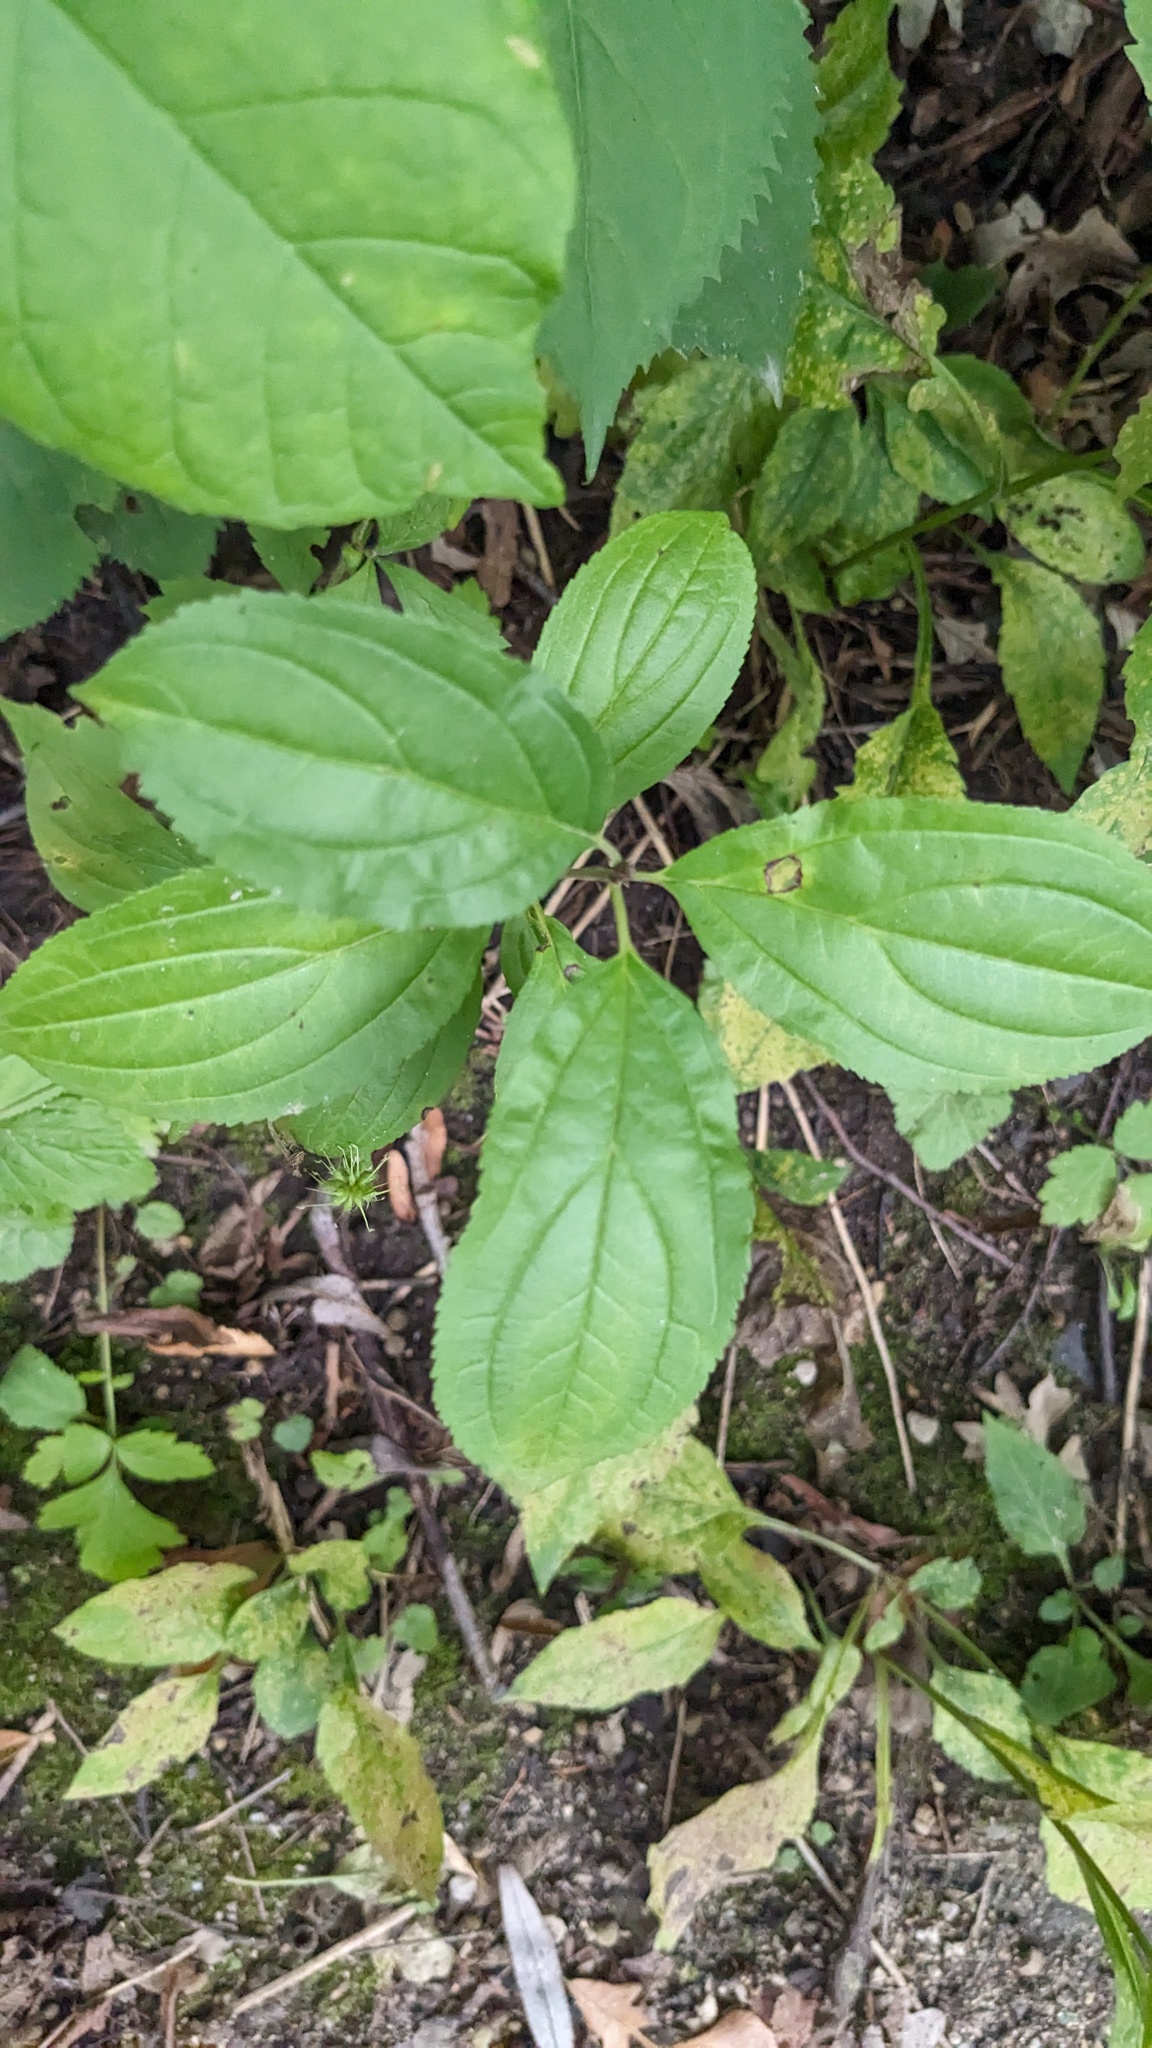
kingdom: Plantae
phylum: Tracheophyta
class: Magnoliopsida
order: Rosales
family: Rhamnaceae
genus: Rhamnus
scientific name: Rhamnus cathartica
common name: Common buckthorn
